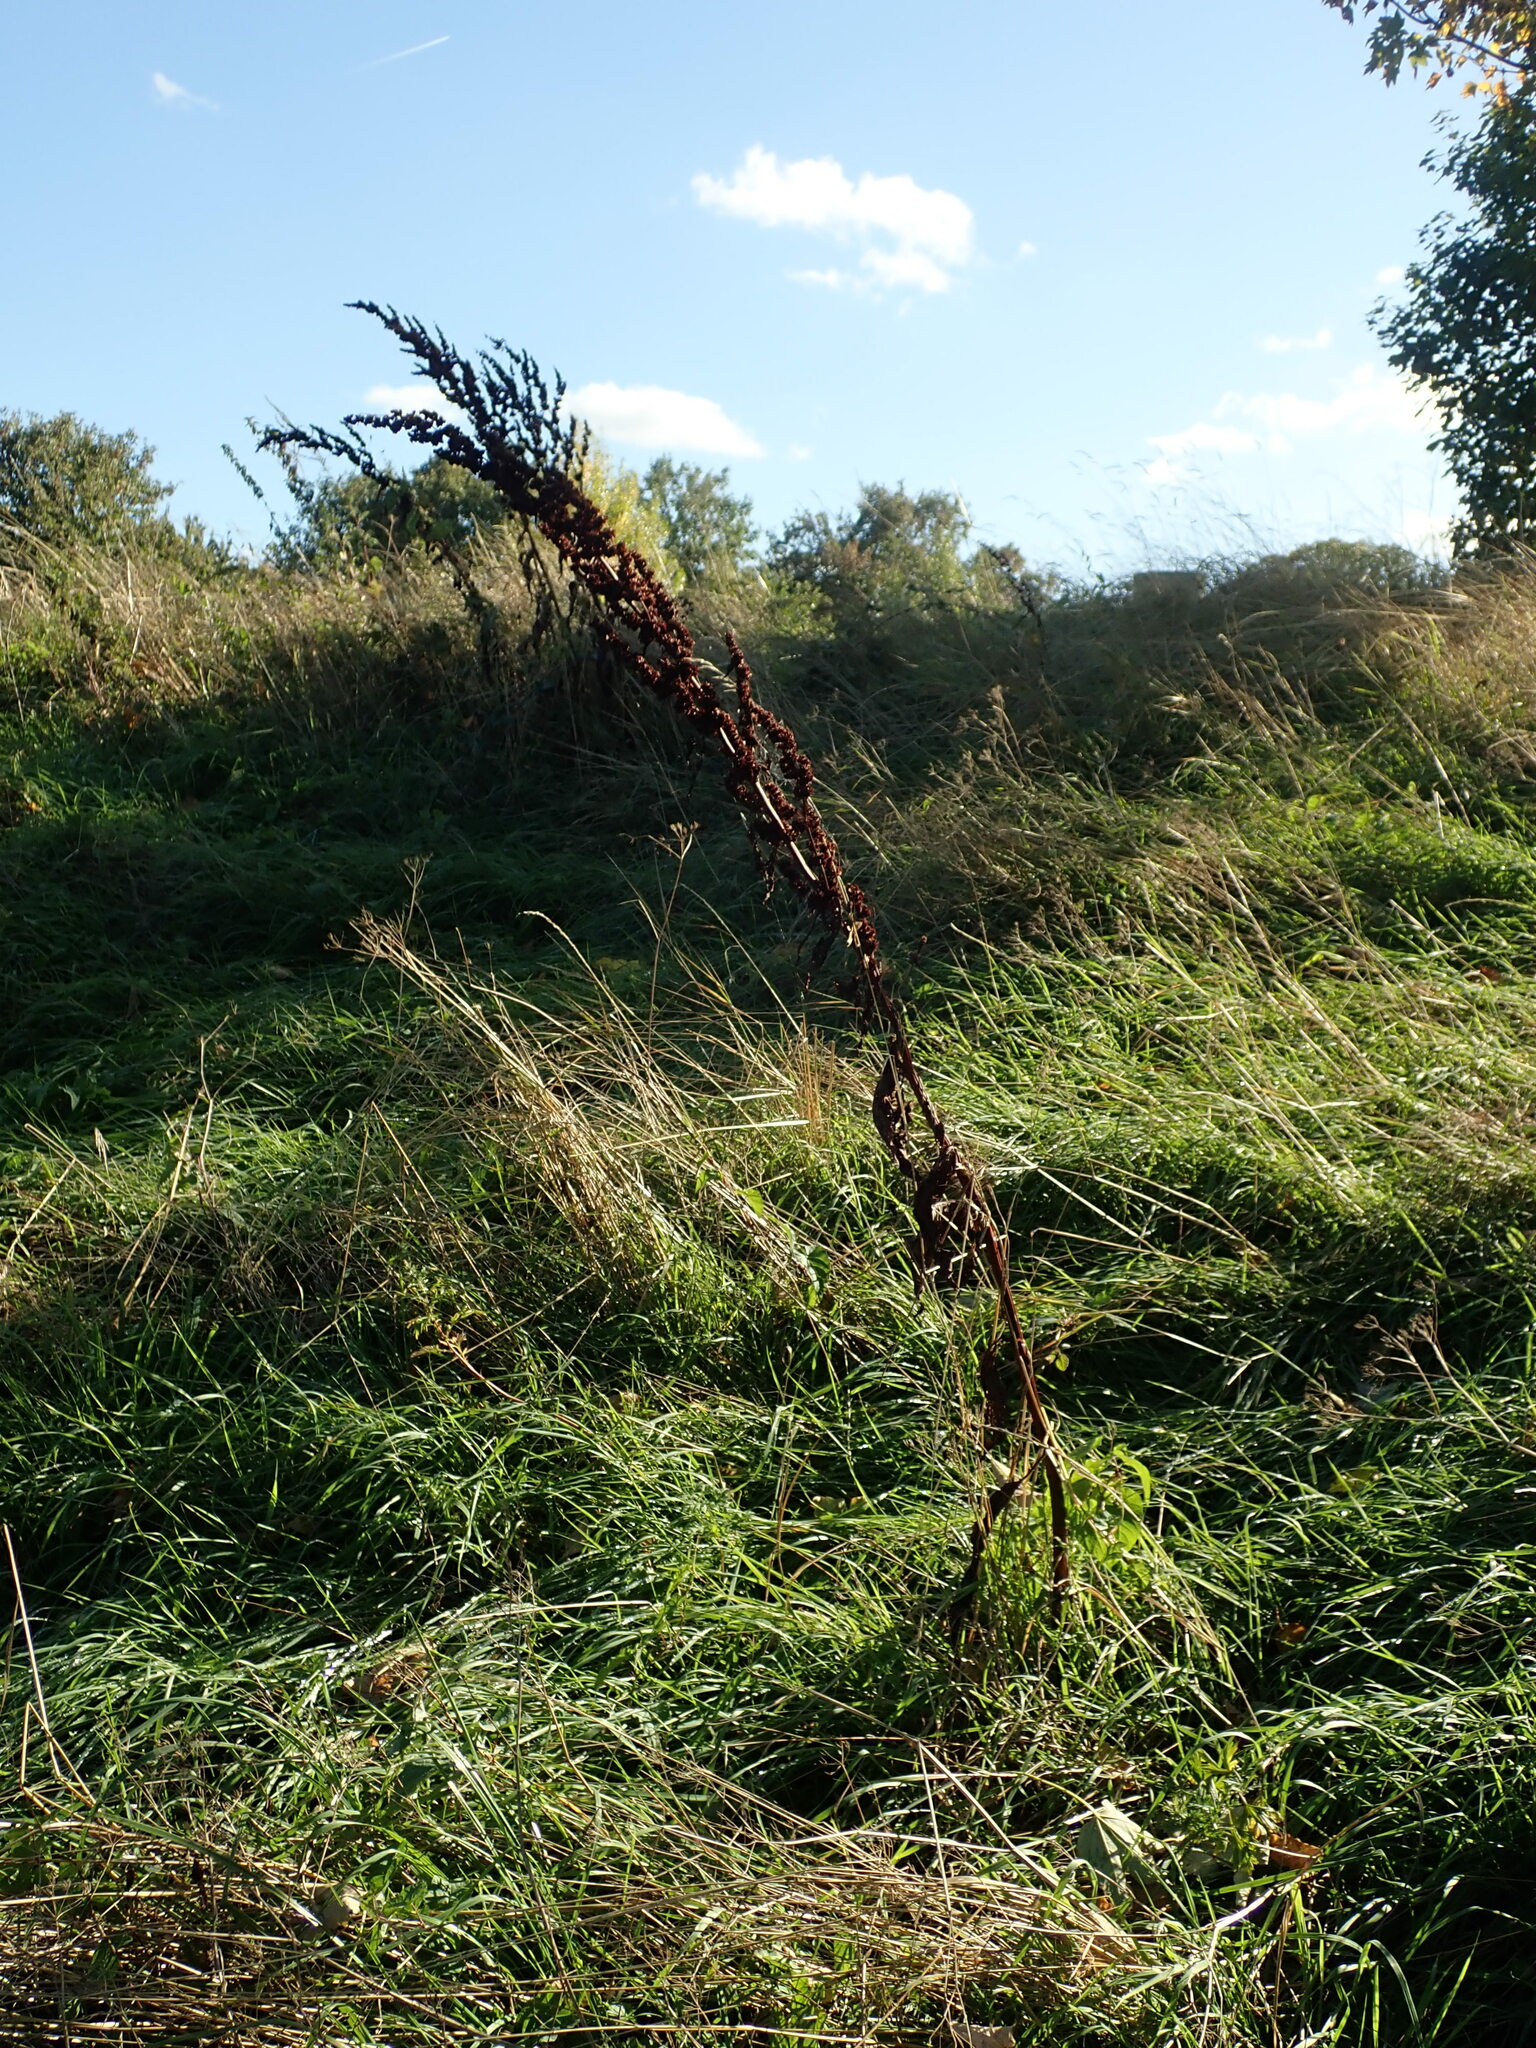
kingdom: Plantae
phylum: Tracheophyta
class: Magnoliopsida
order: Caryophyllales
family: Polygonaceae
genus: Rumex
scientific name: Rumex cristatus
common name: Greek dock
